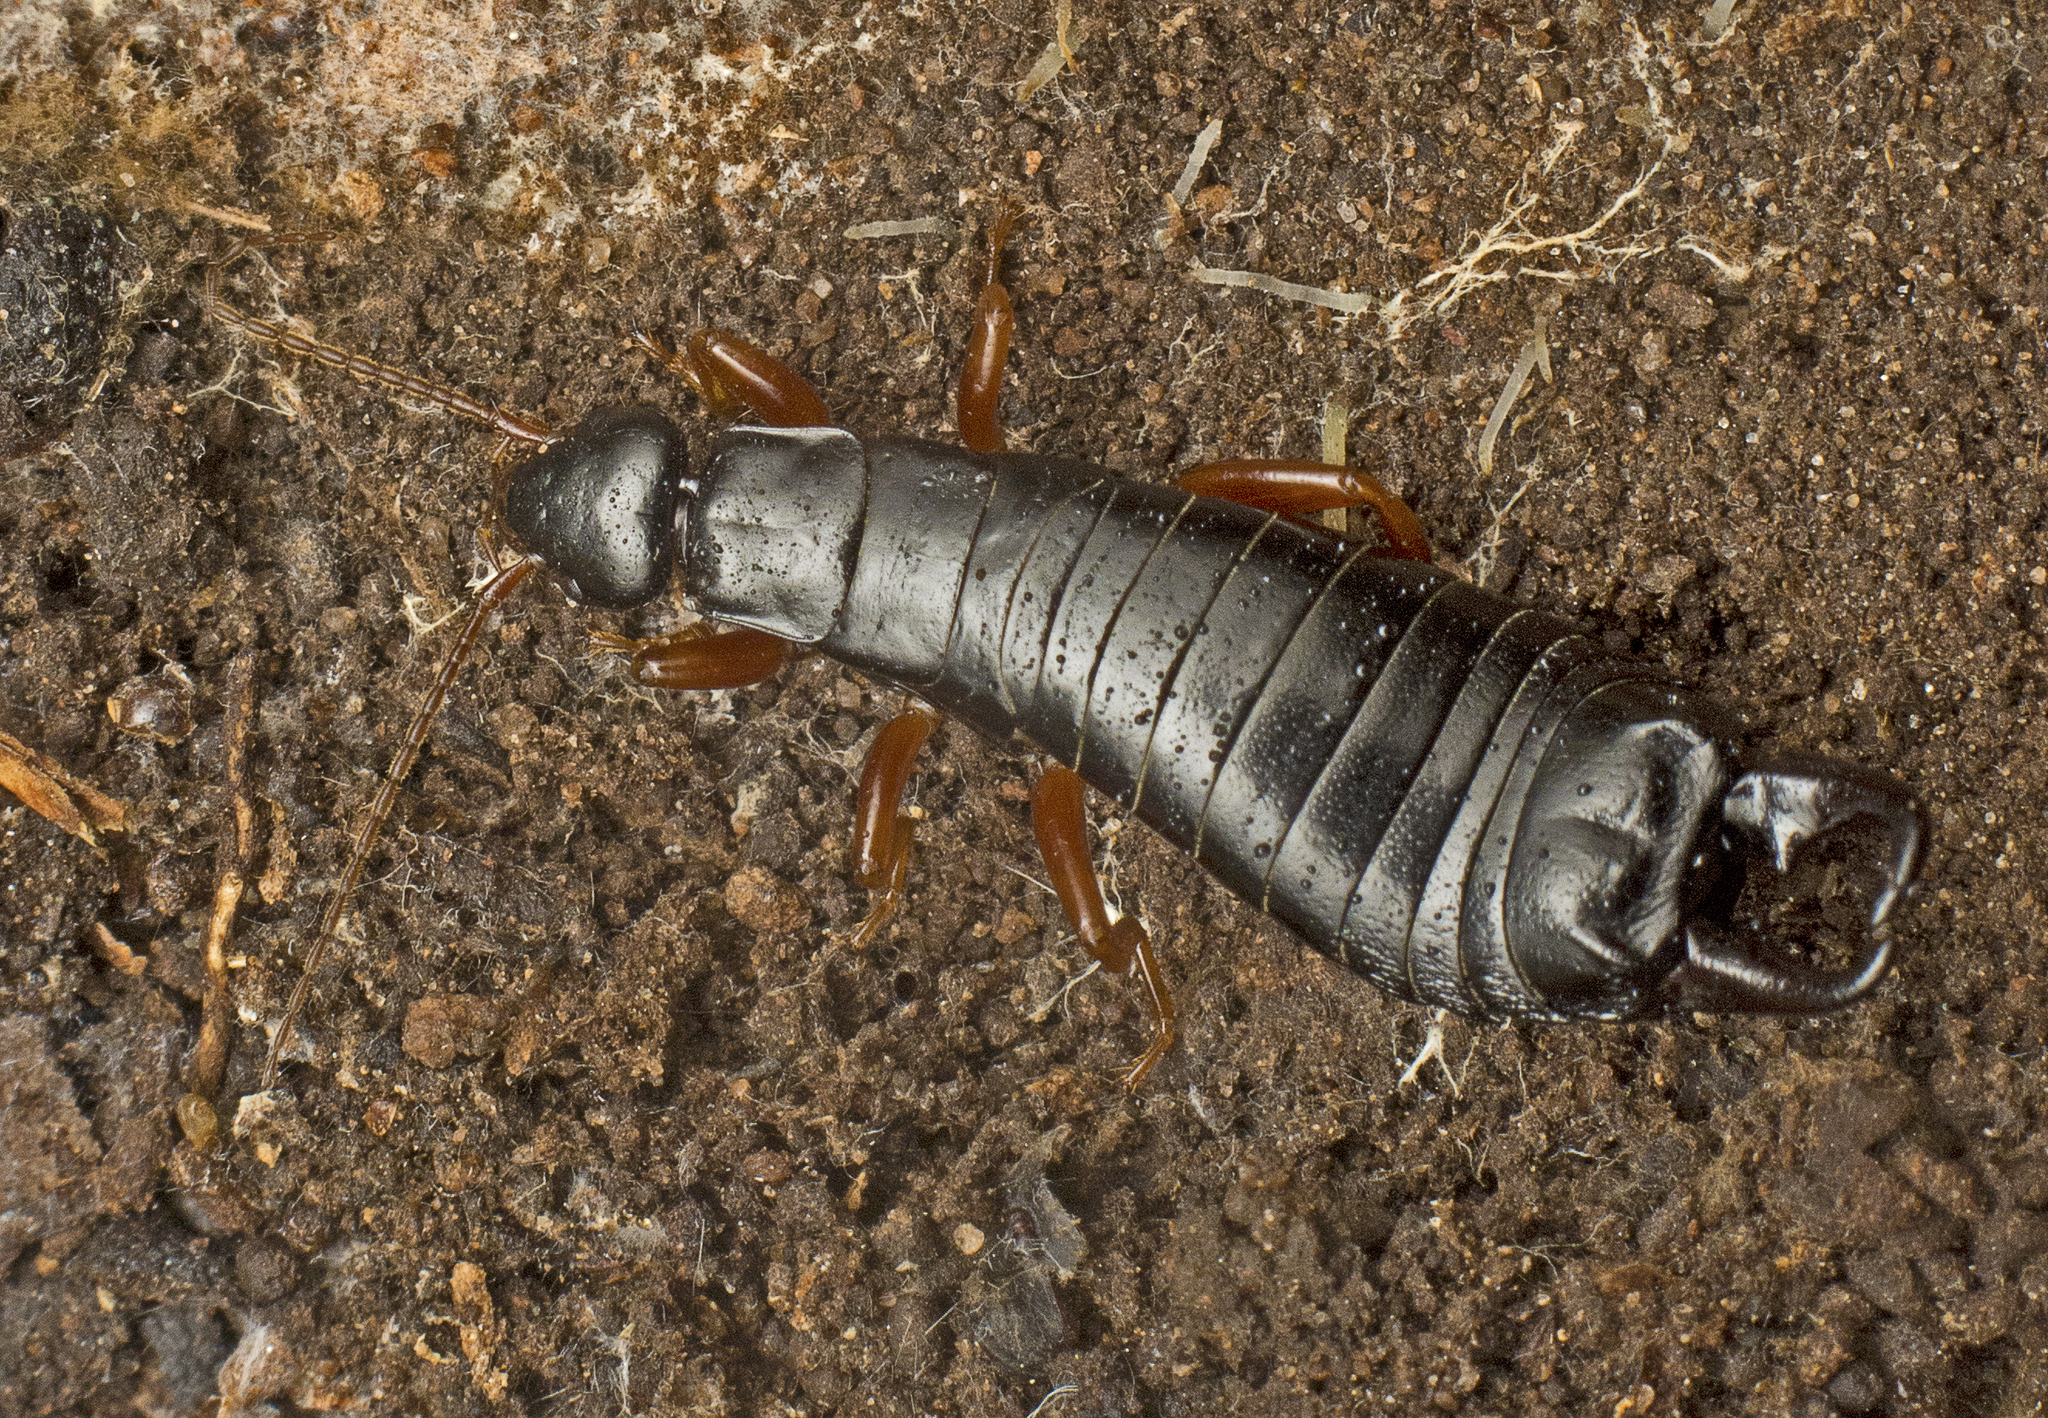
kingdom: Animalia
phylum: Arthropoda
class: Insecta
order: Dermaptera
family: Anisolabididae
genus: Anisolabis
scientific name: Anisolabis westralica
